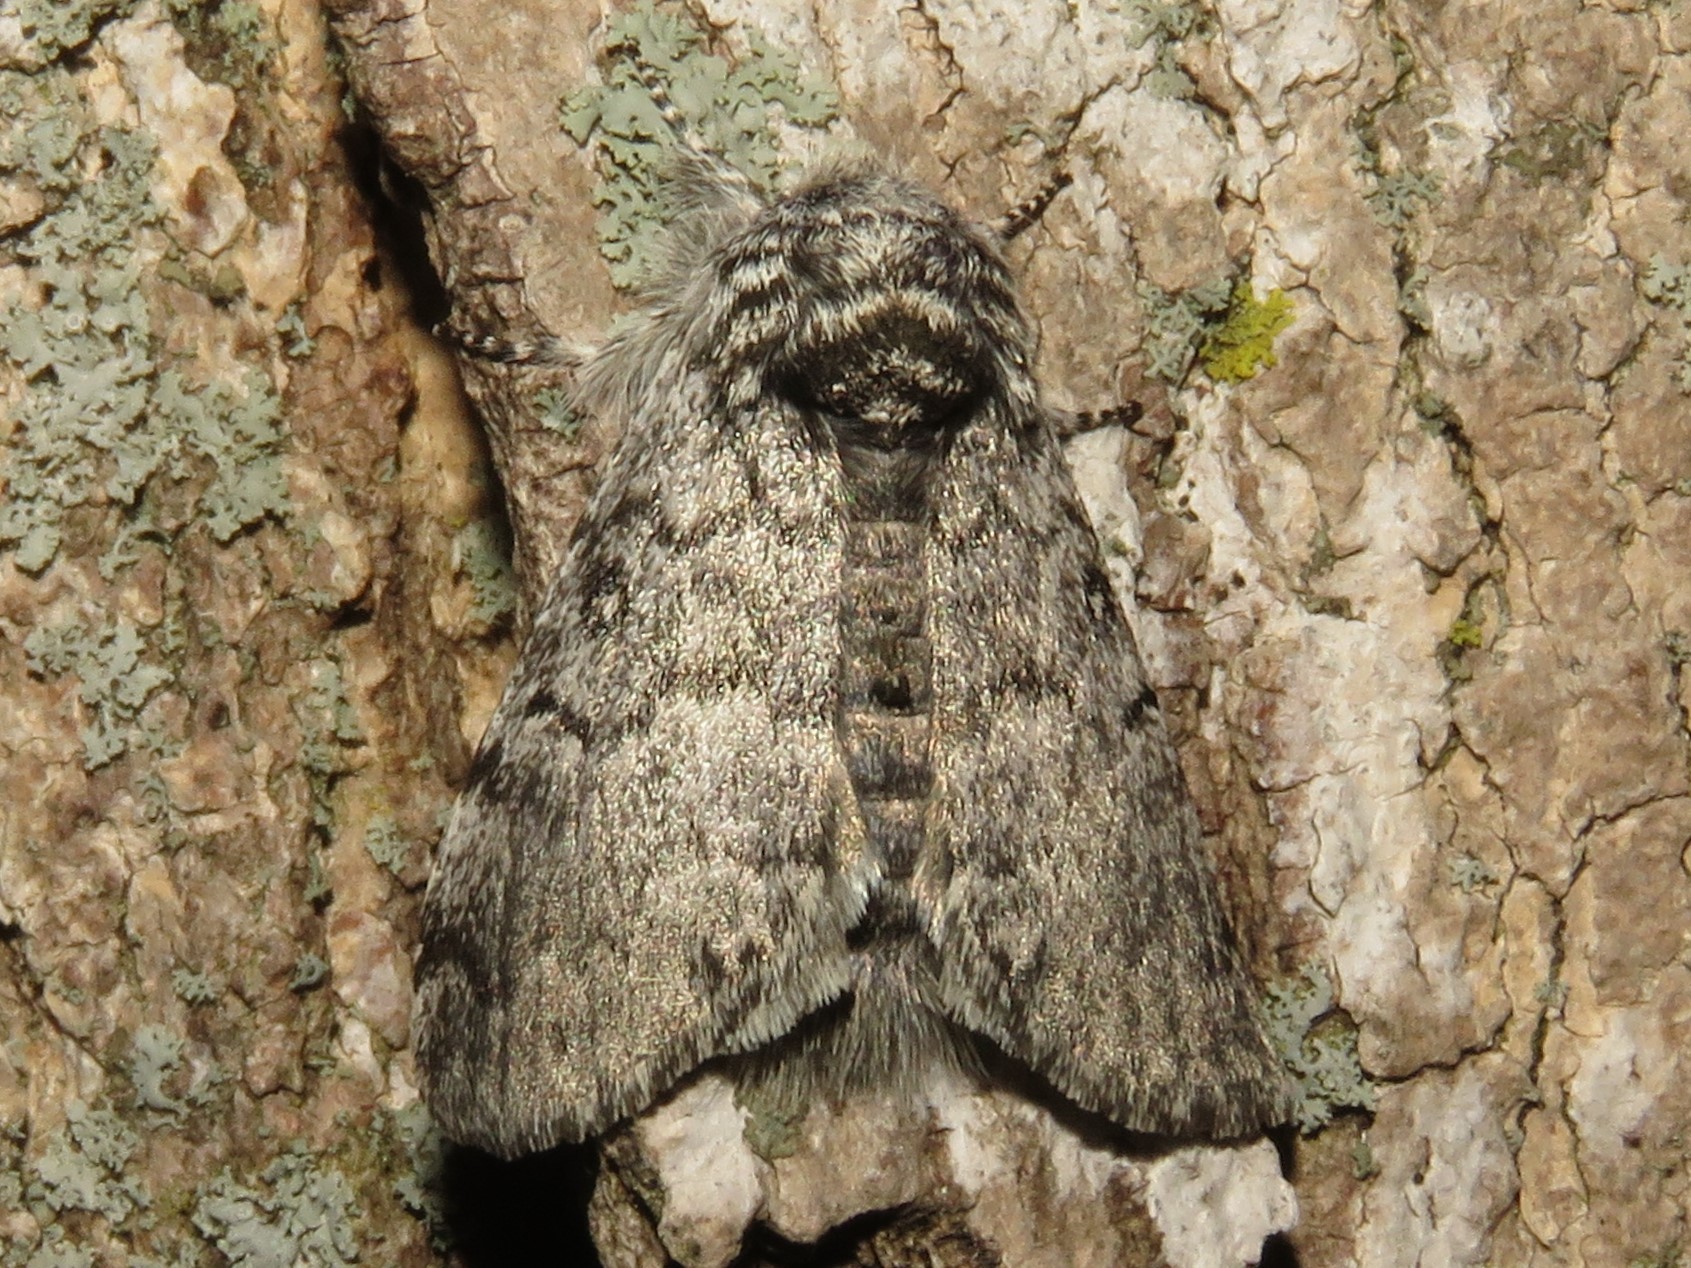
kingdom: Animalia
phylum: Arthropoda
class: Insecta
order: Lepidoptera
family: Noctuidae
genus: Colocasia
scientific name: Colocasia propinquilinea
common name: Close-banded demas
